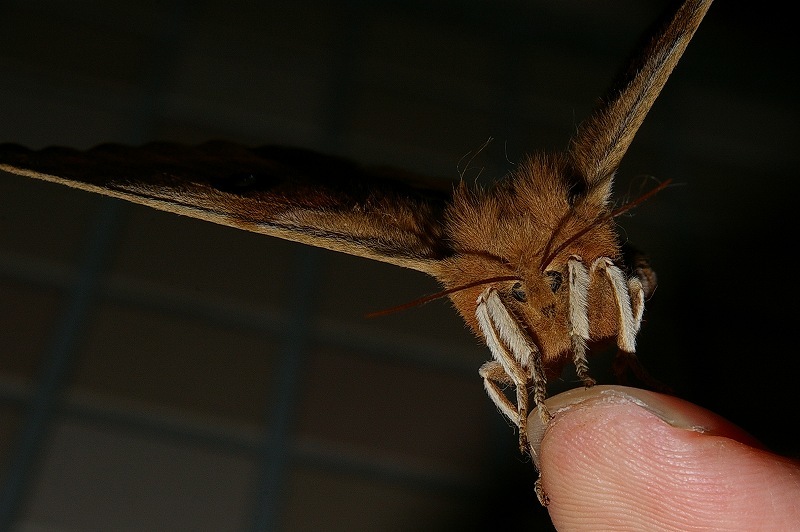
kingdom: Animalia
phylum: Arthropoda
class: Insecta
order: Lepidoptera
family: Saturniidae
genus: Aglia
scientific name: Aglia japonica
